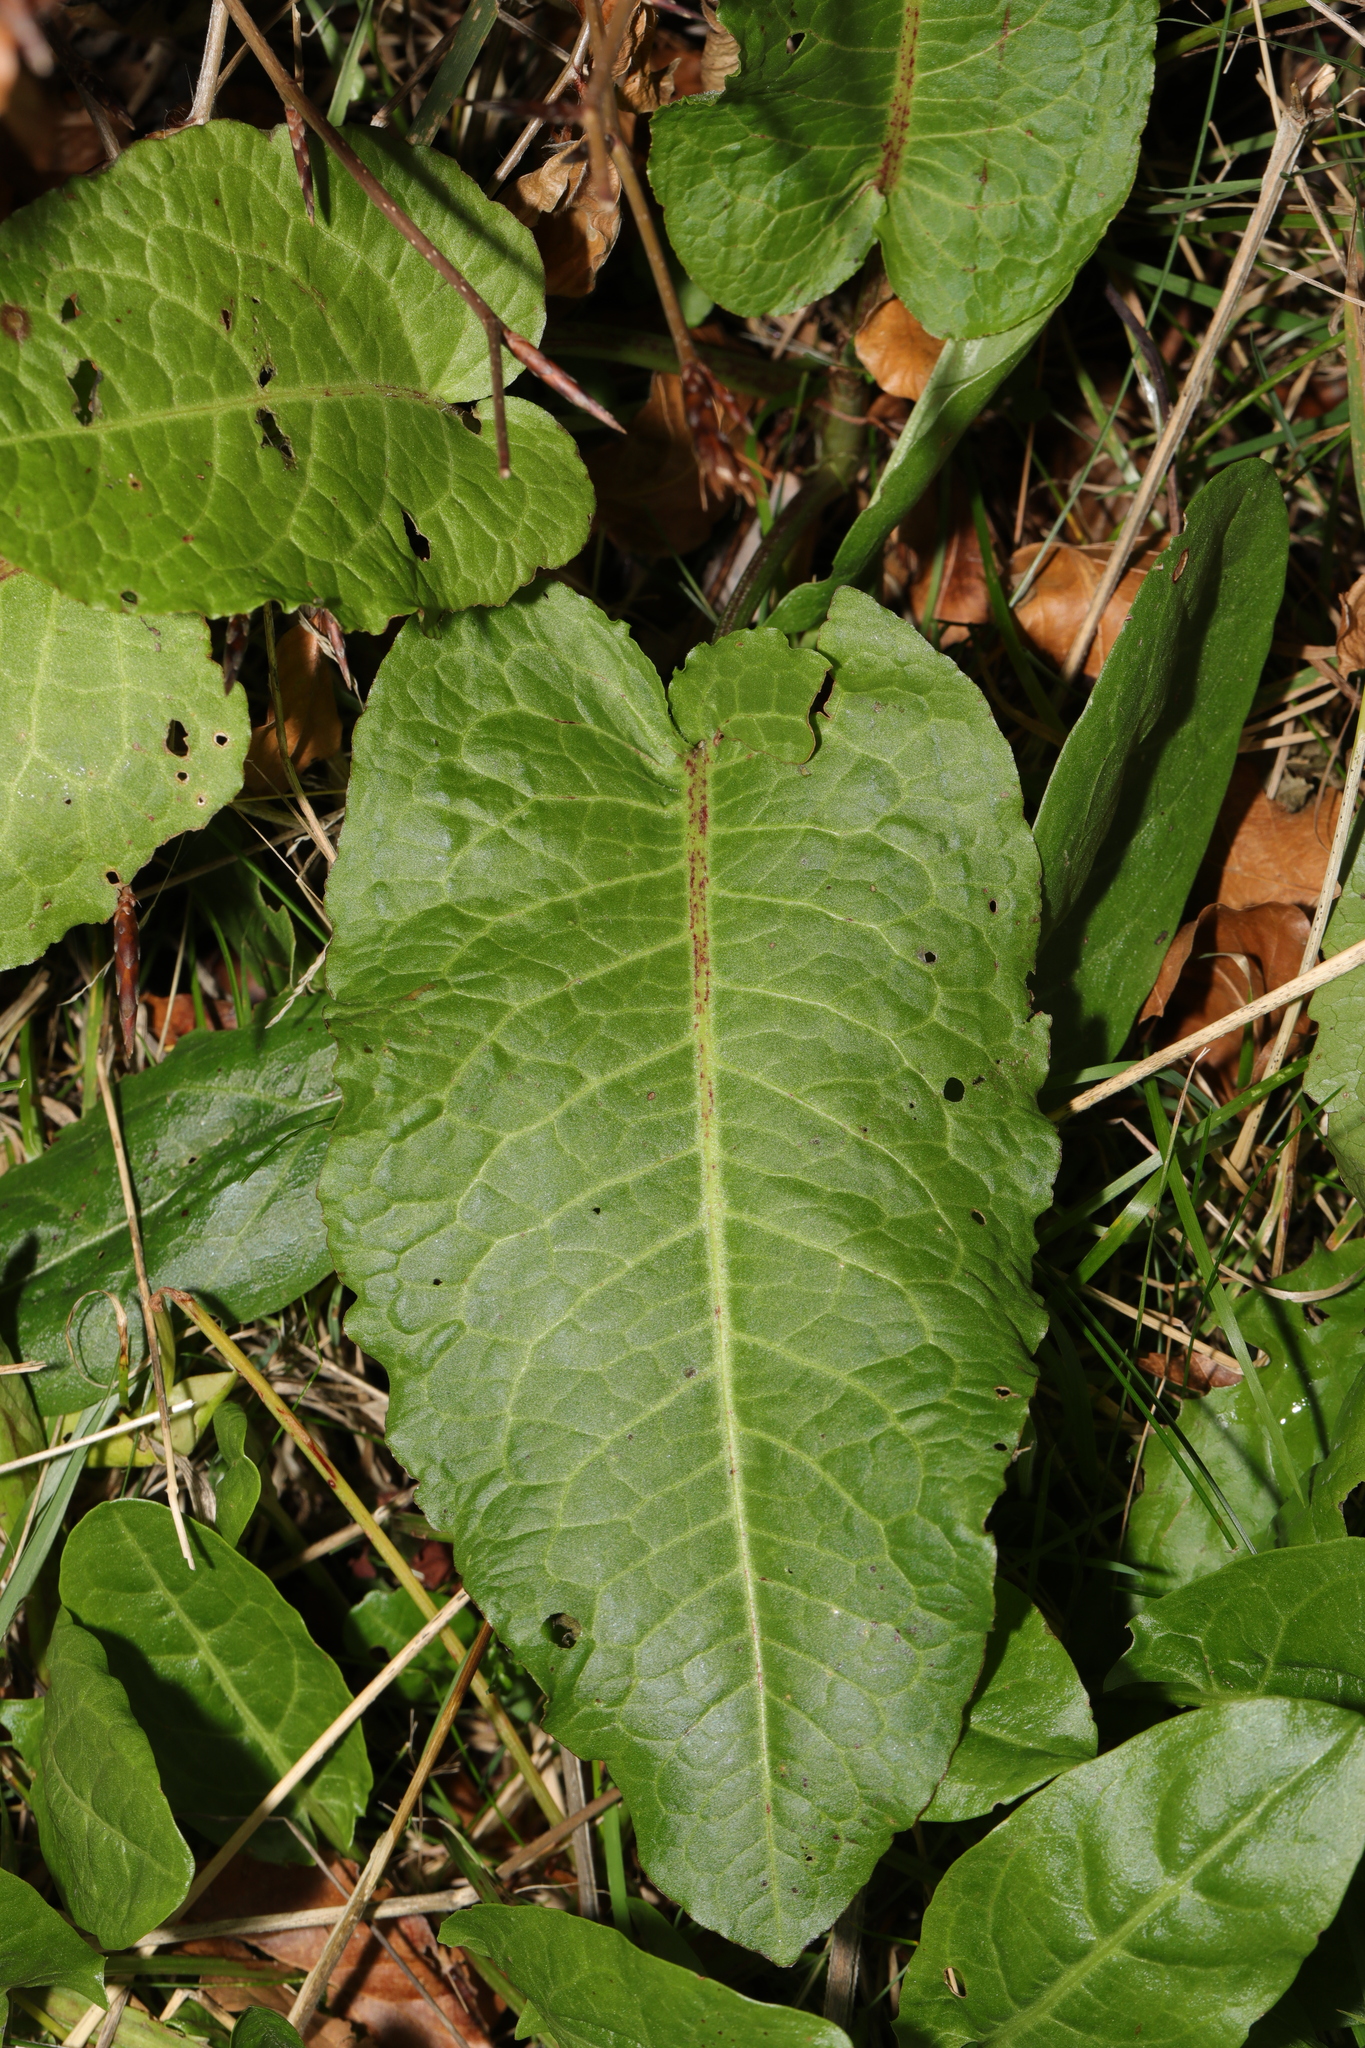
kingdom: Plantae
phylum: Tracheophyta
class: Magnoliopsida
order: Caryophyllales
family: Polygonaceae
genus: Rumex
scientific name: Rumex obtusifolius
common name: Bitter dock
